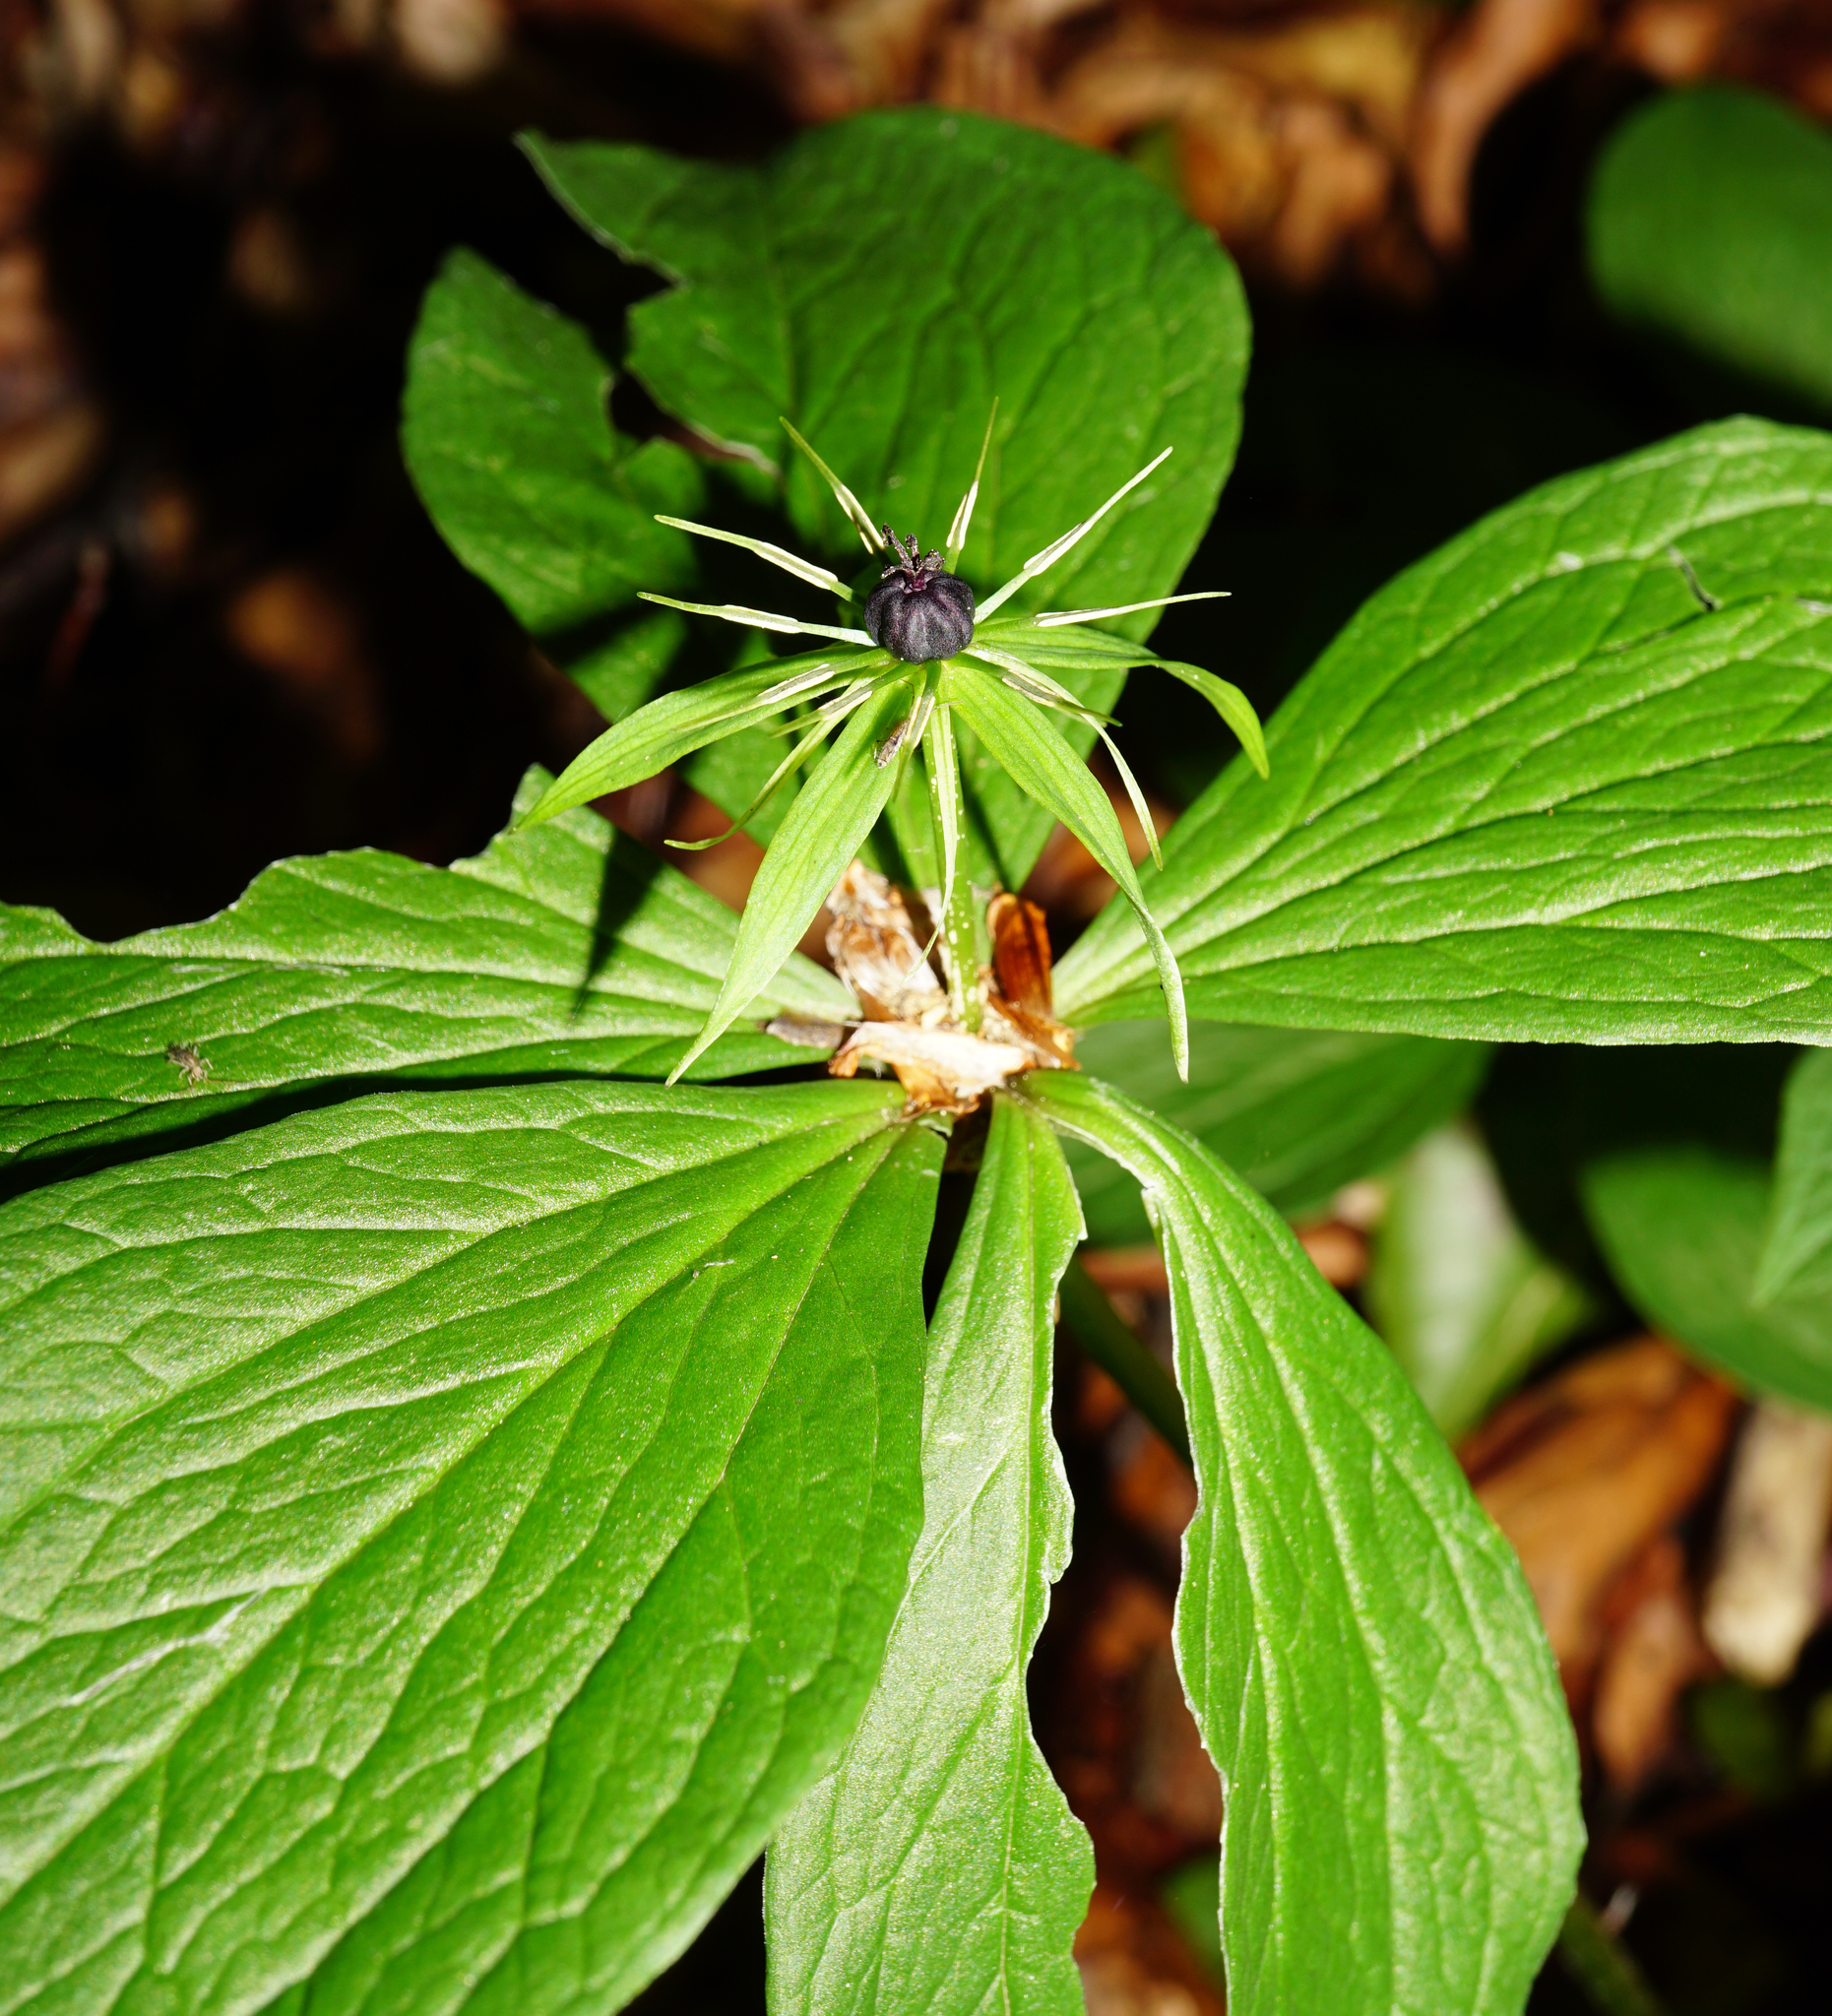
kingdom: Plantae
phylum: Tracheophyta
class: Liliopsida
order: Liliales
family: Melanthiaceae
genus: Paris
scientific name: Paris quadrifolia
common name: Herb-paris
